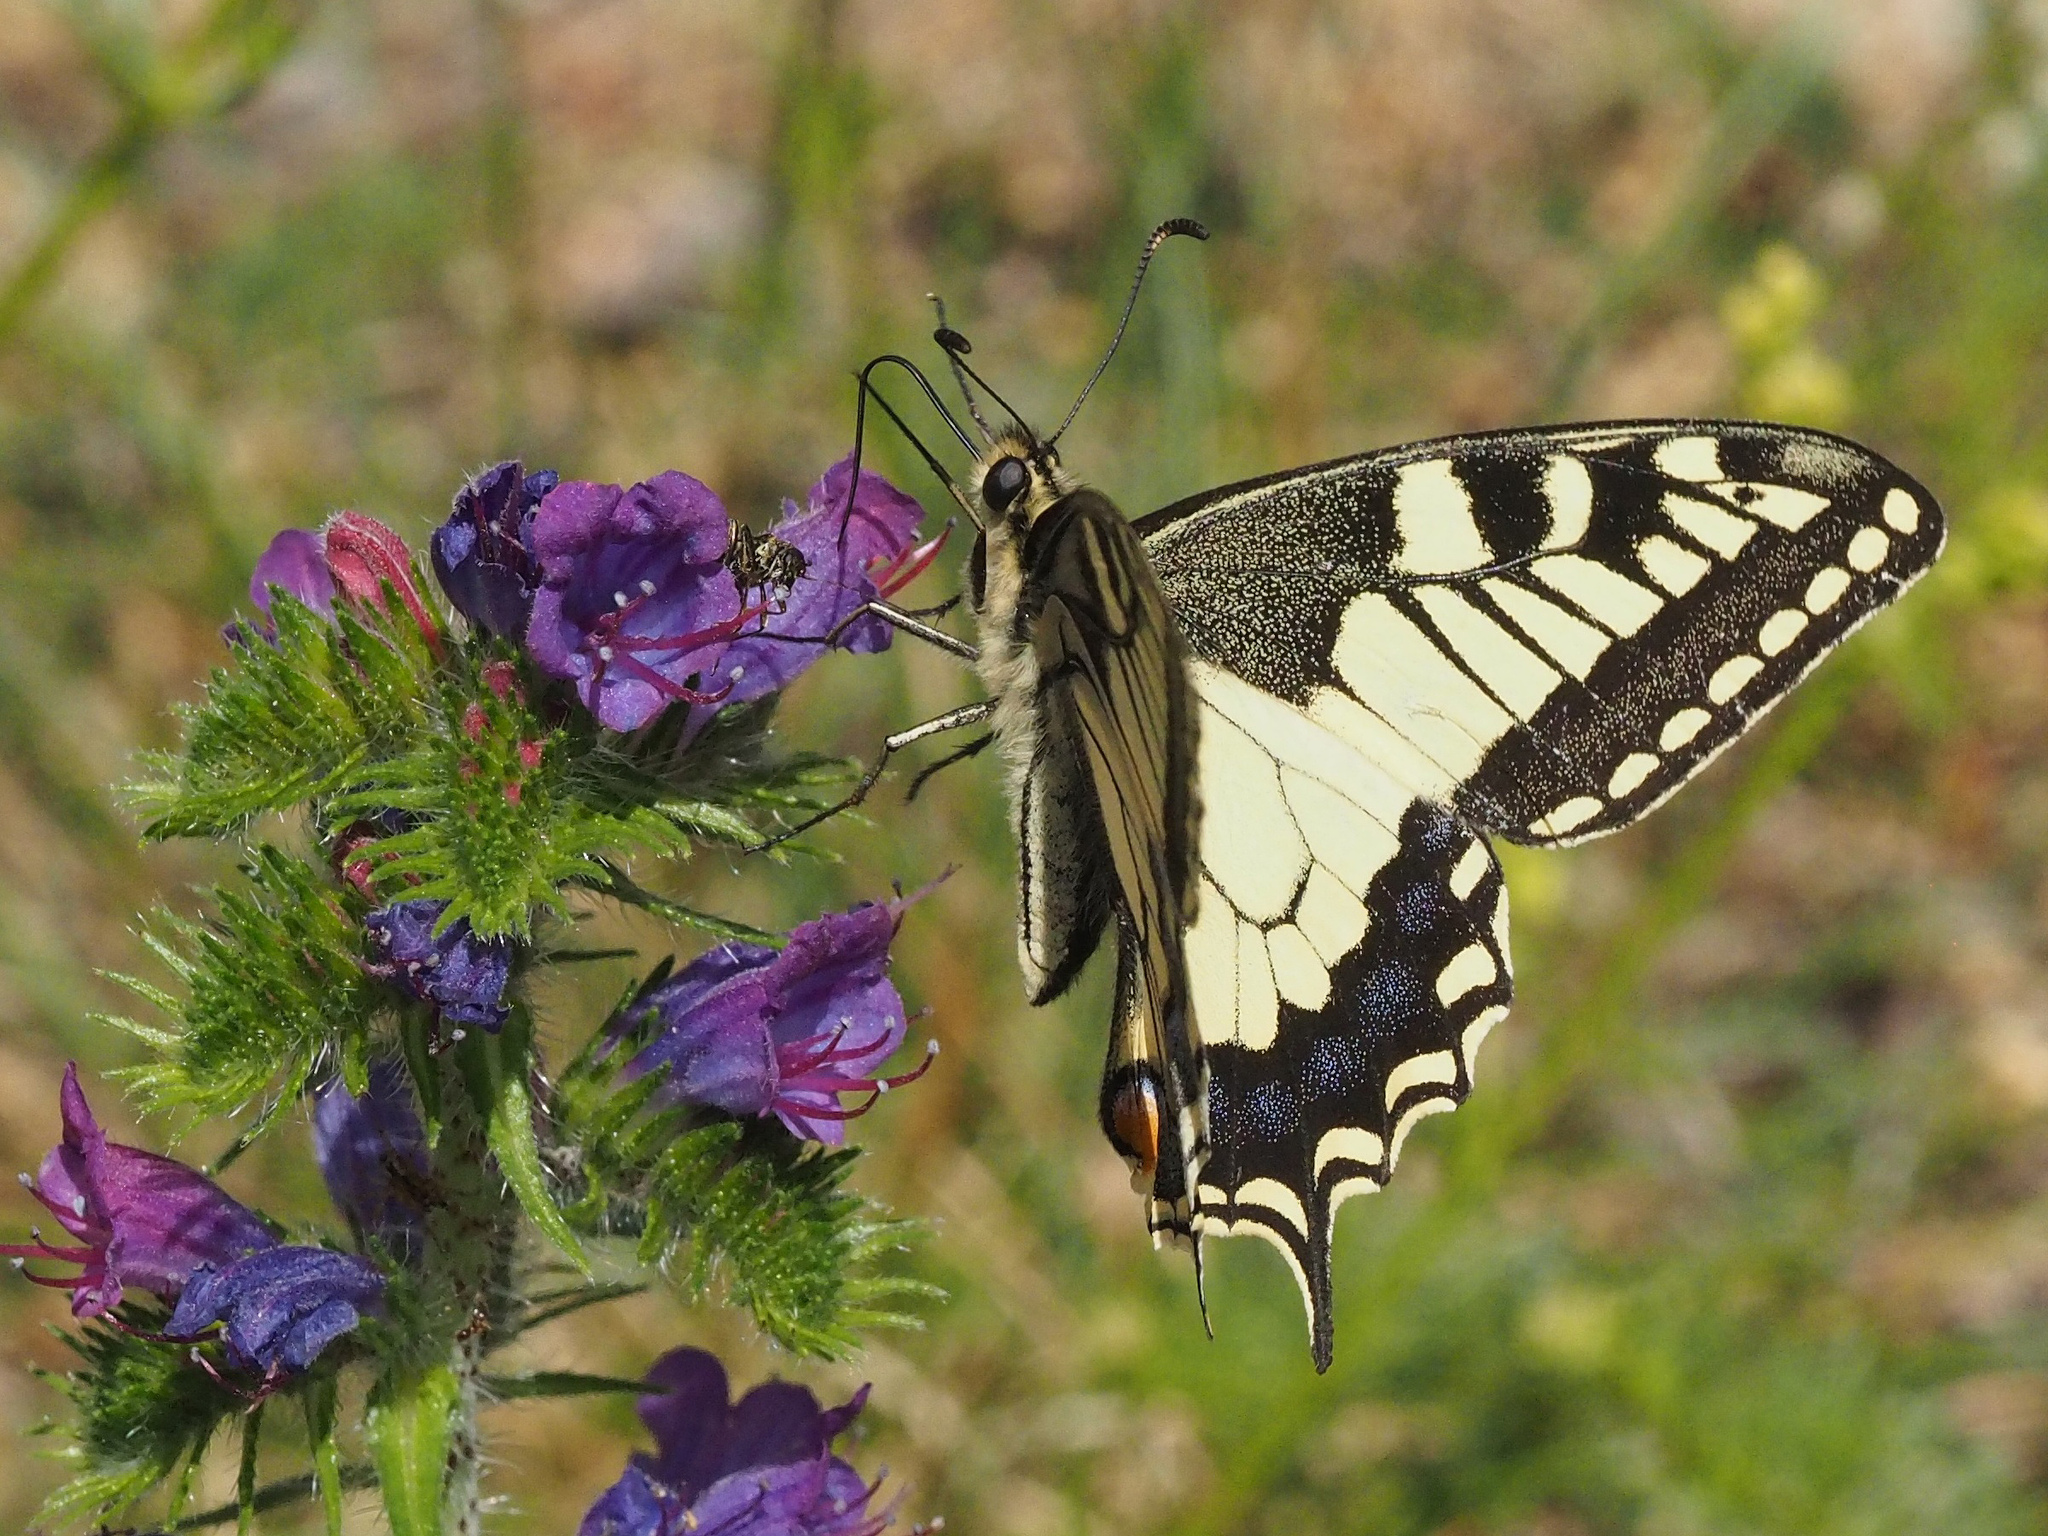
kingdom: Animalia
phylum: Arthropoda
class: Insecta
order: Lepidoptera
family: Papilionidae
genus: Papilio
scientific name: Papilio machaon
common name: Swallowtail
